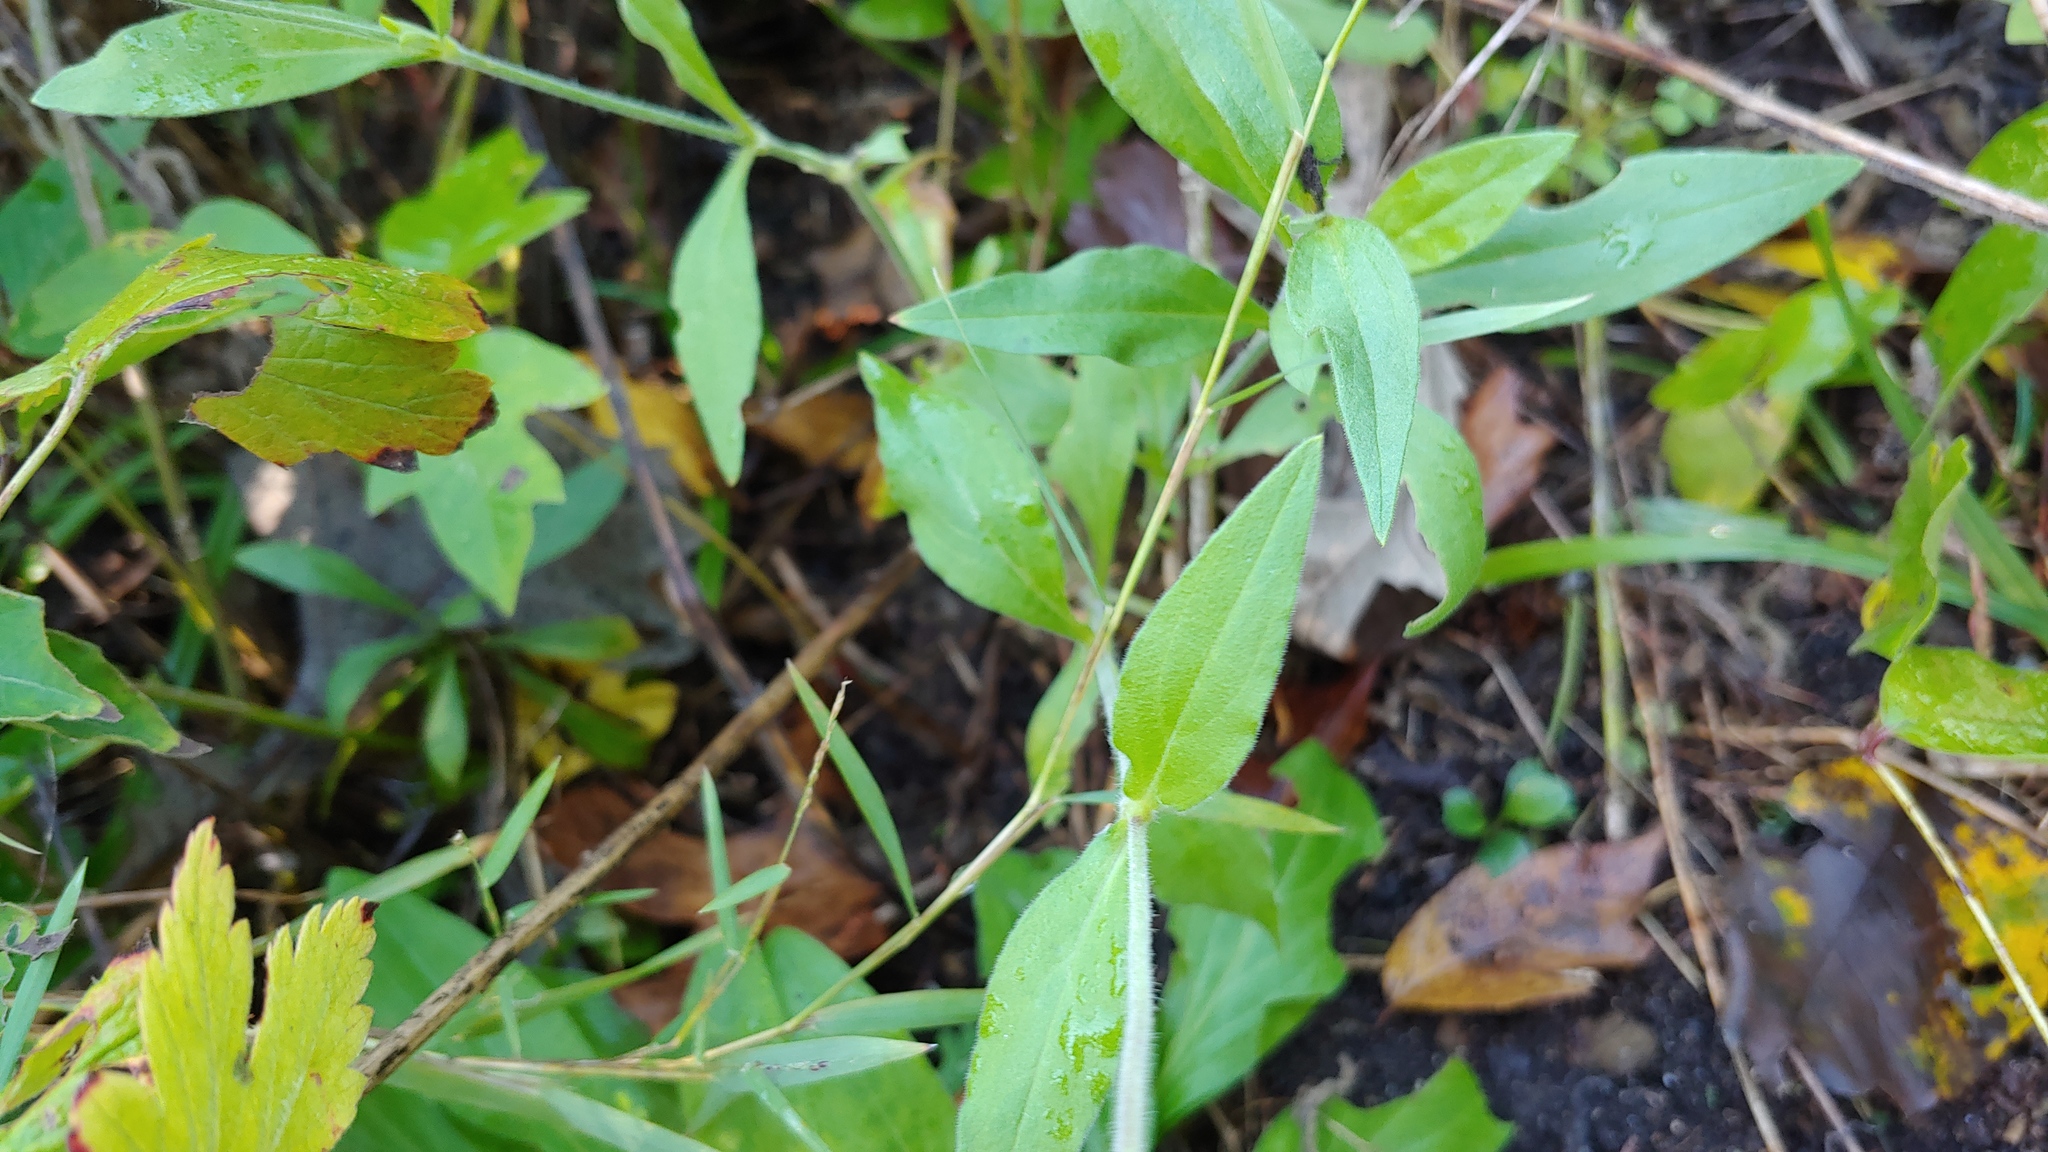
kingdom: Plantae
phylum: Tracheophyta
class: Magnoliopsida
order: Caryophyllales
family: Caryophyllaceae
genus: Silene
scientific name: Silene latifolia
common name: White campion
